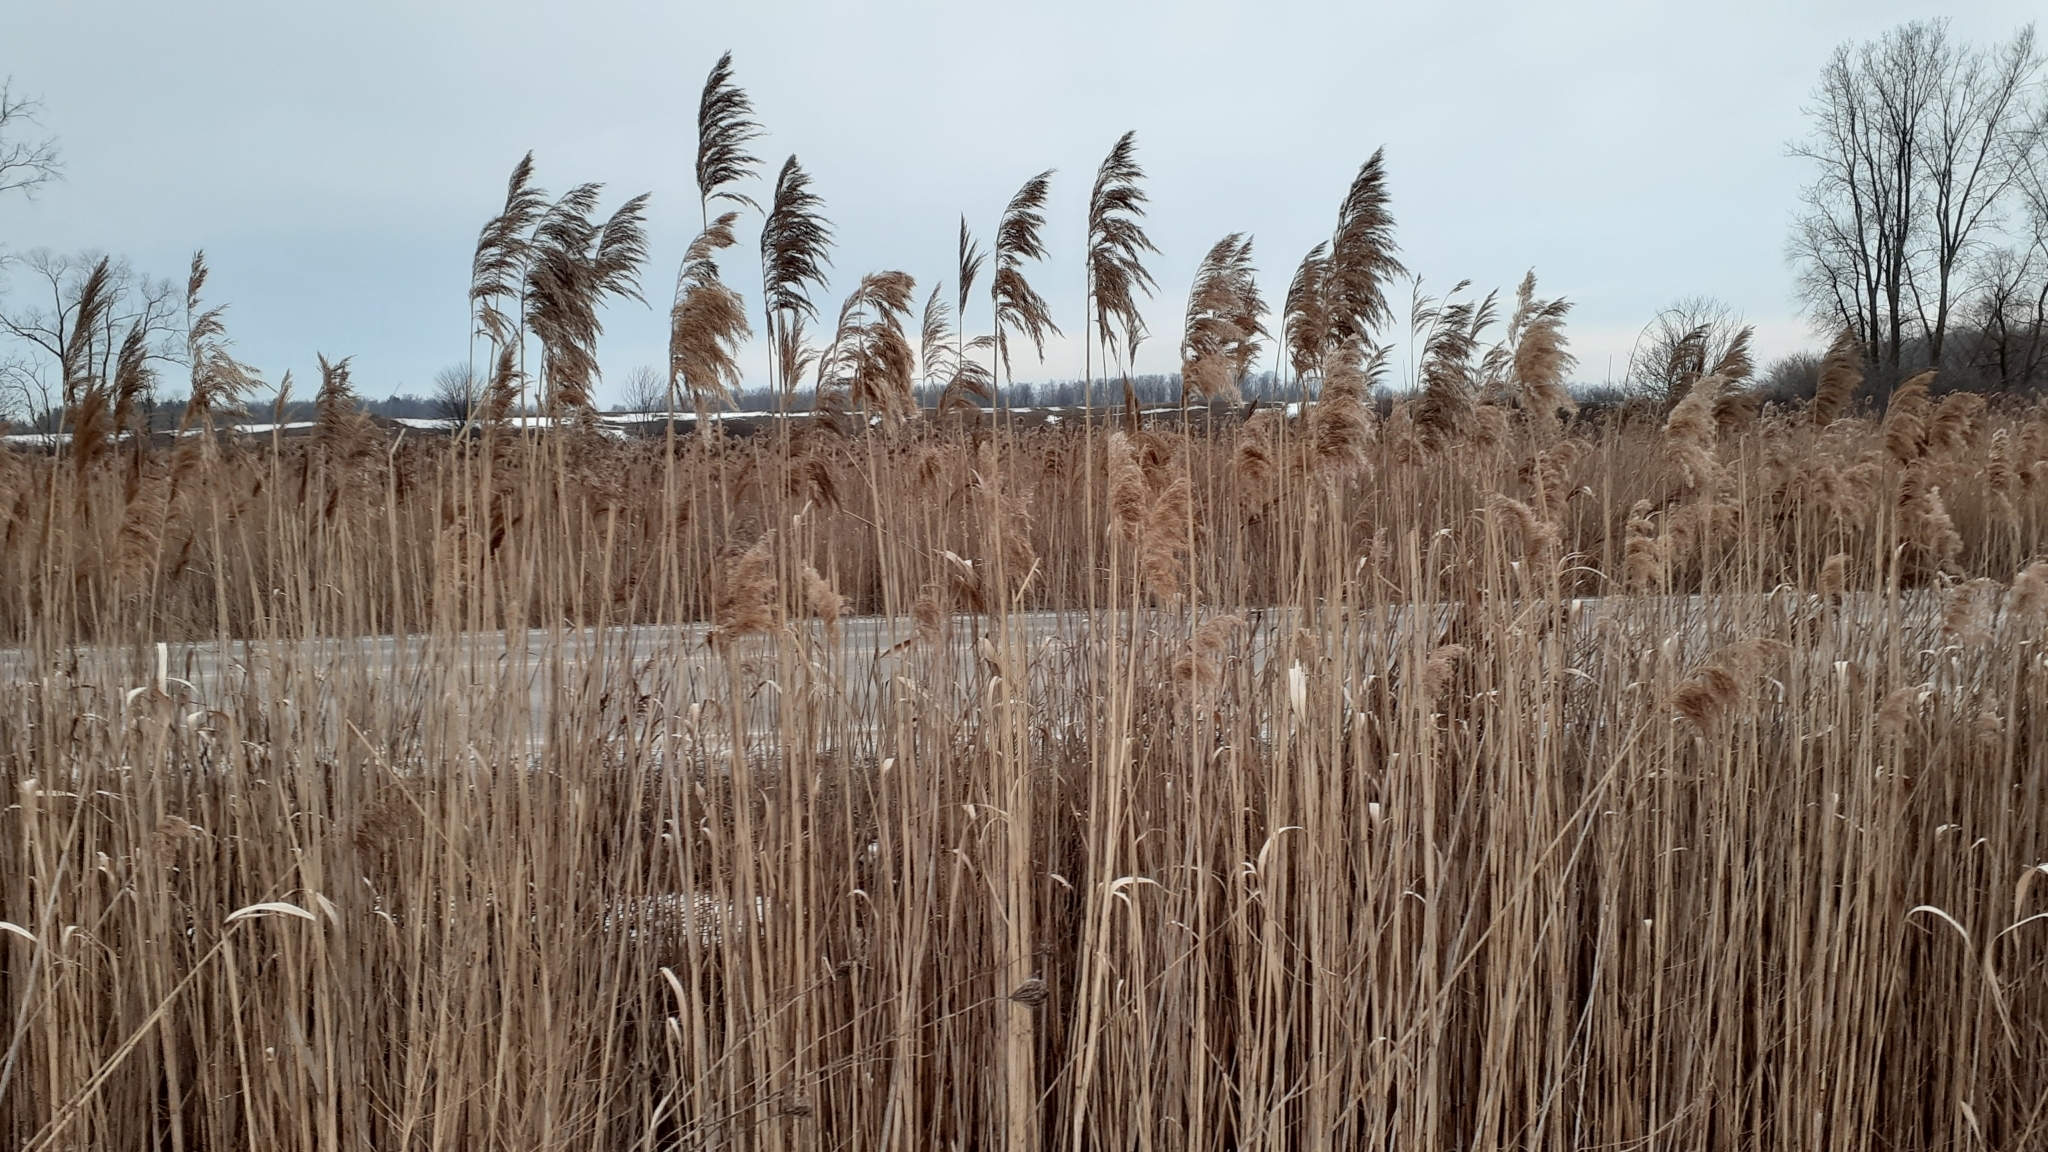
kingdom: Plantae
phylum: Tracheophyta
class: Liliopsida
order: Poales
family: Poaceae
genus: Phragmites
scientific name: Phragmites australis
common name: Common reed
